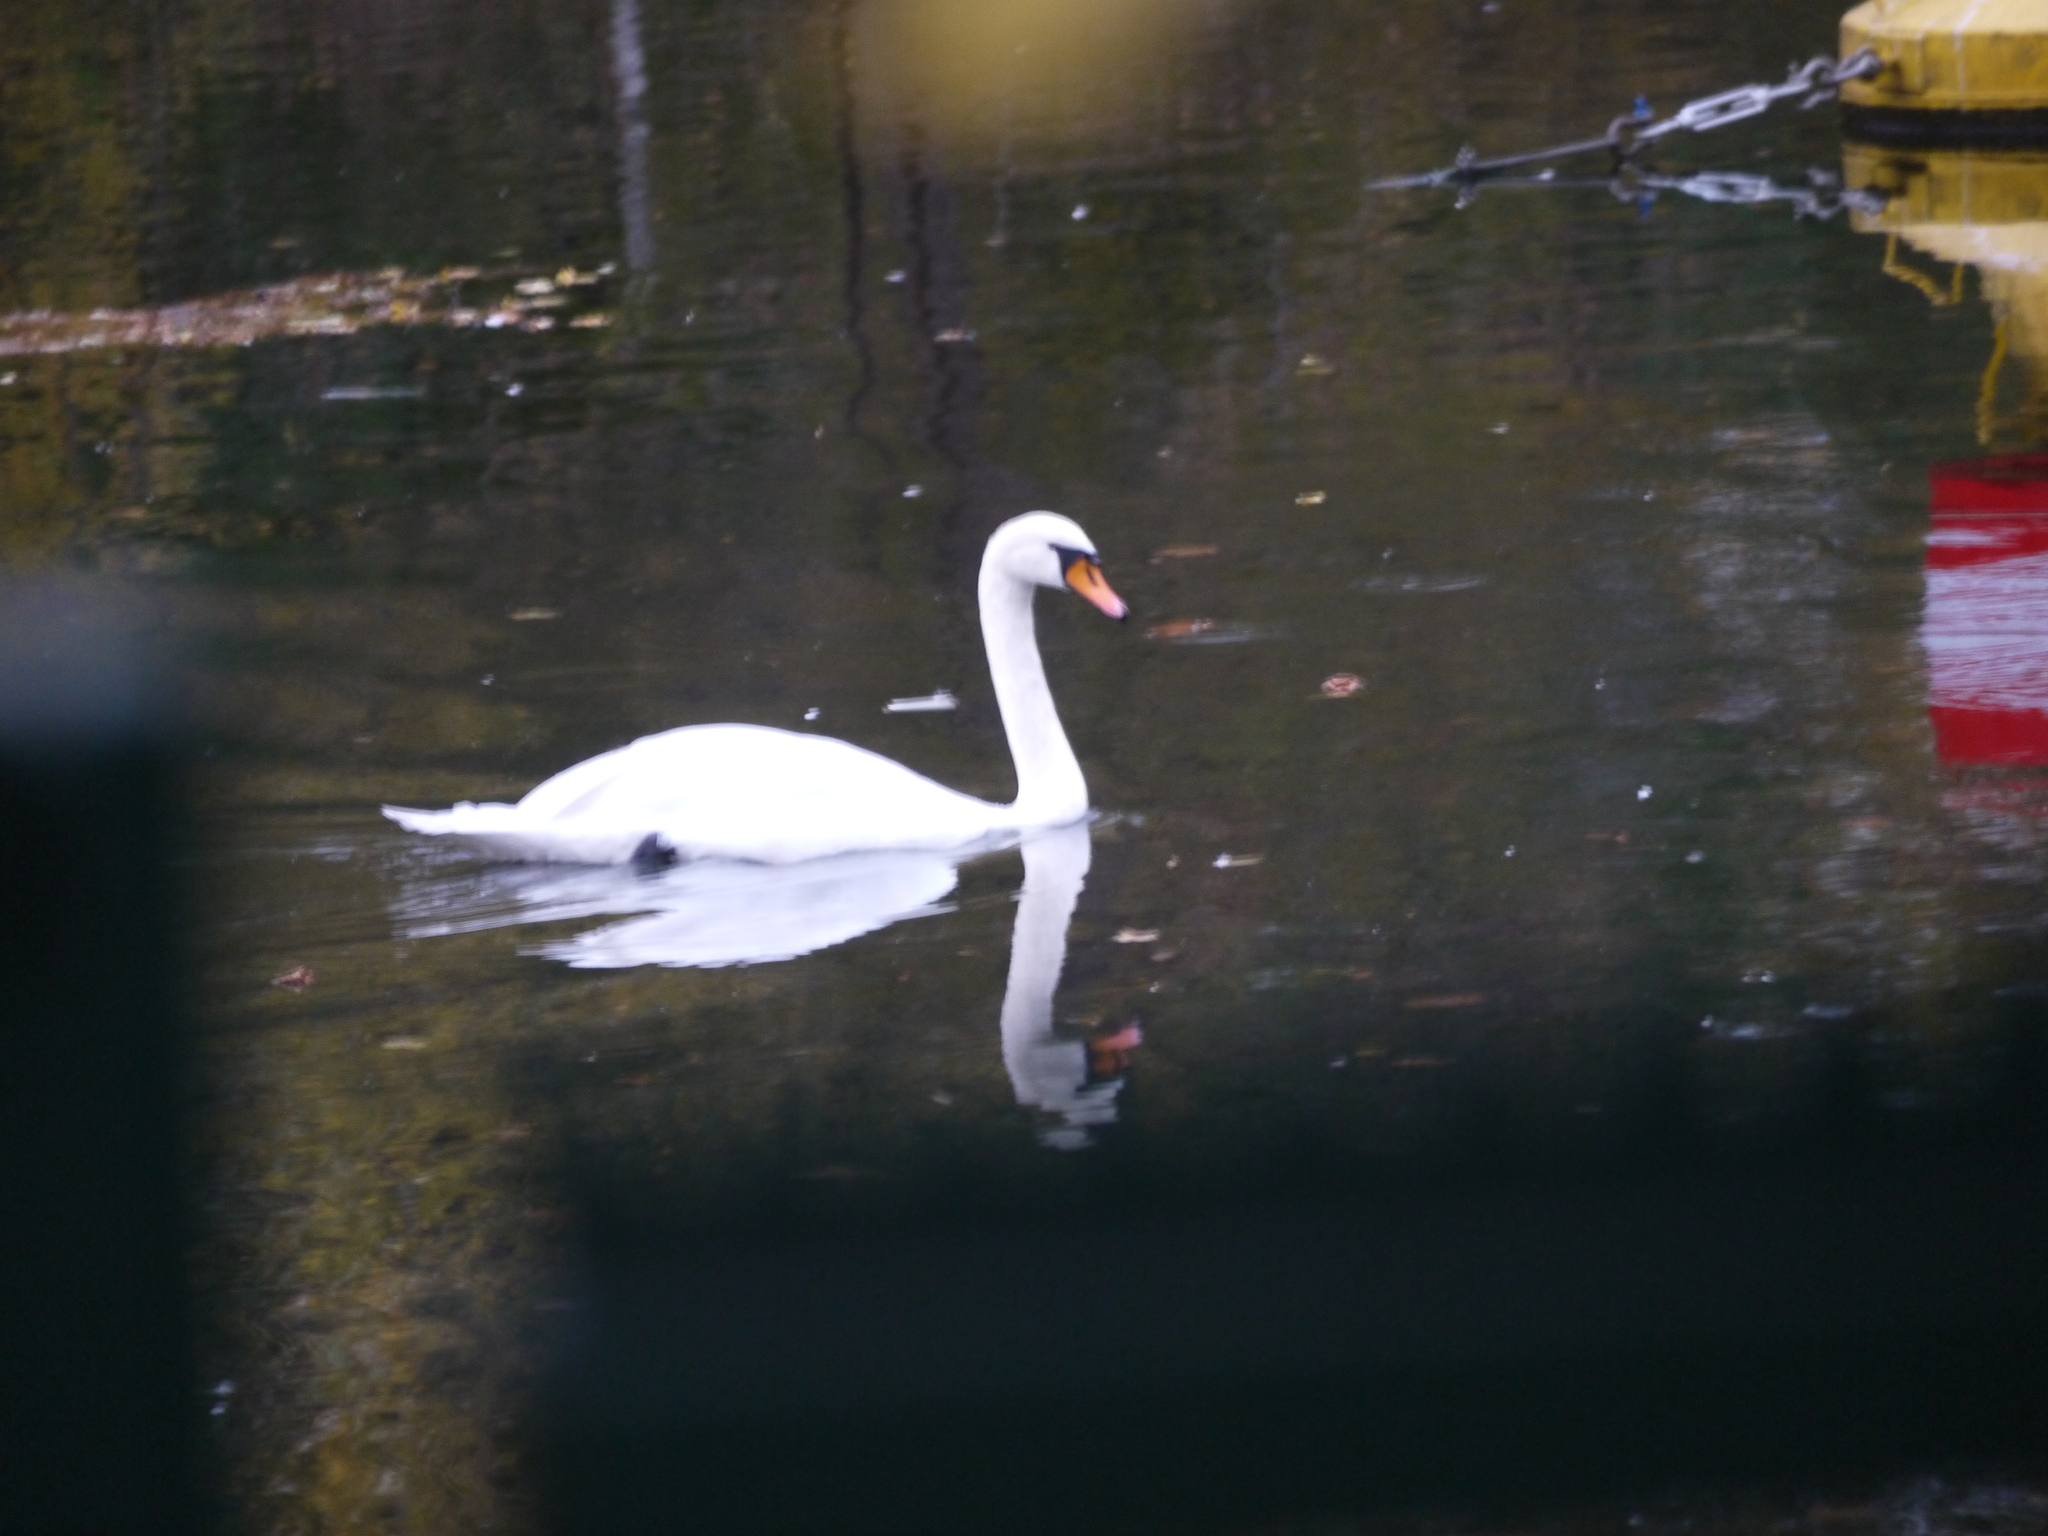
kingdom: Animalia
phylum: Chordata
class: Aves
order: Anseriformes
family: Anatidae
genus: Cygnus
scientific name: Cygnus olor
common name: Mute swan
